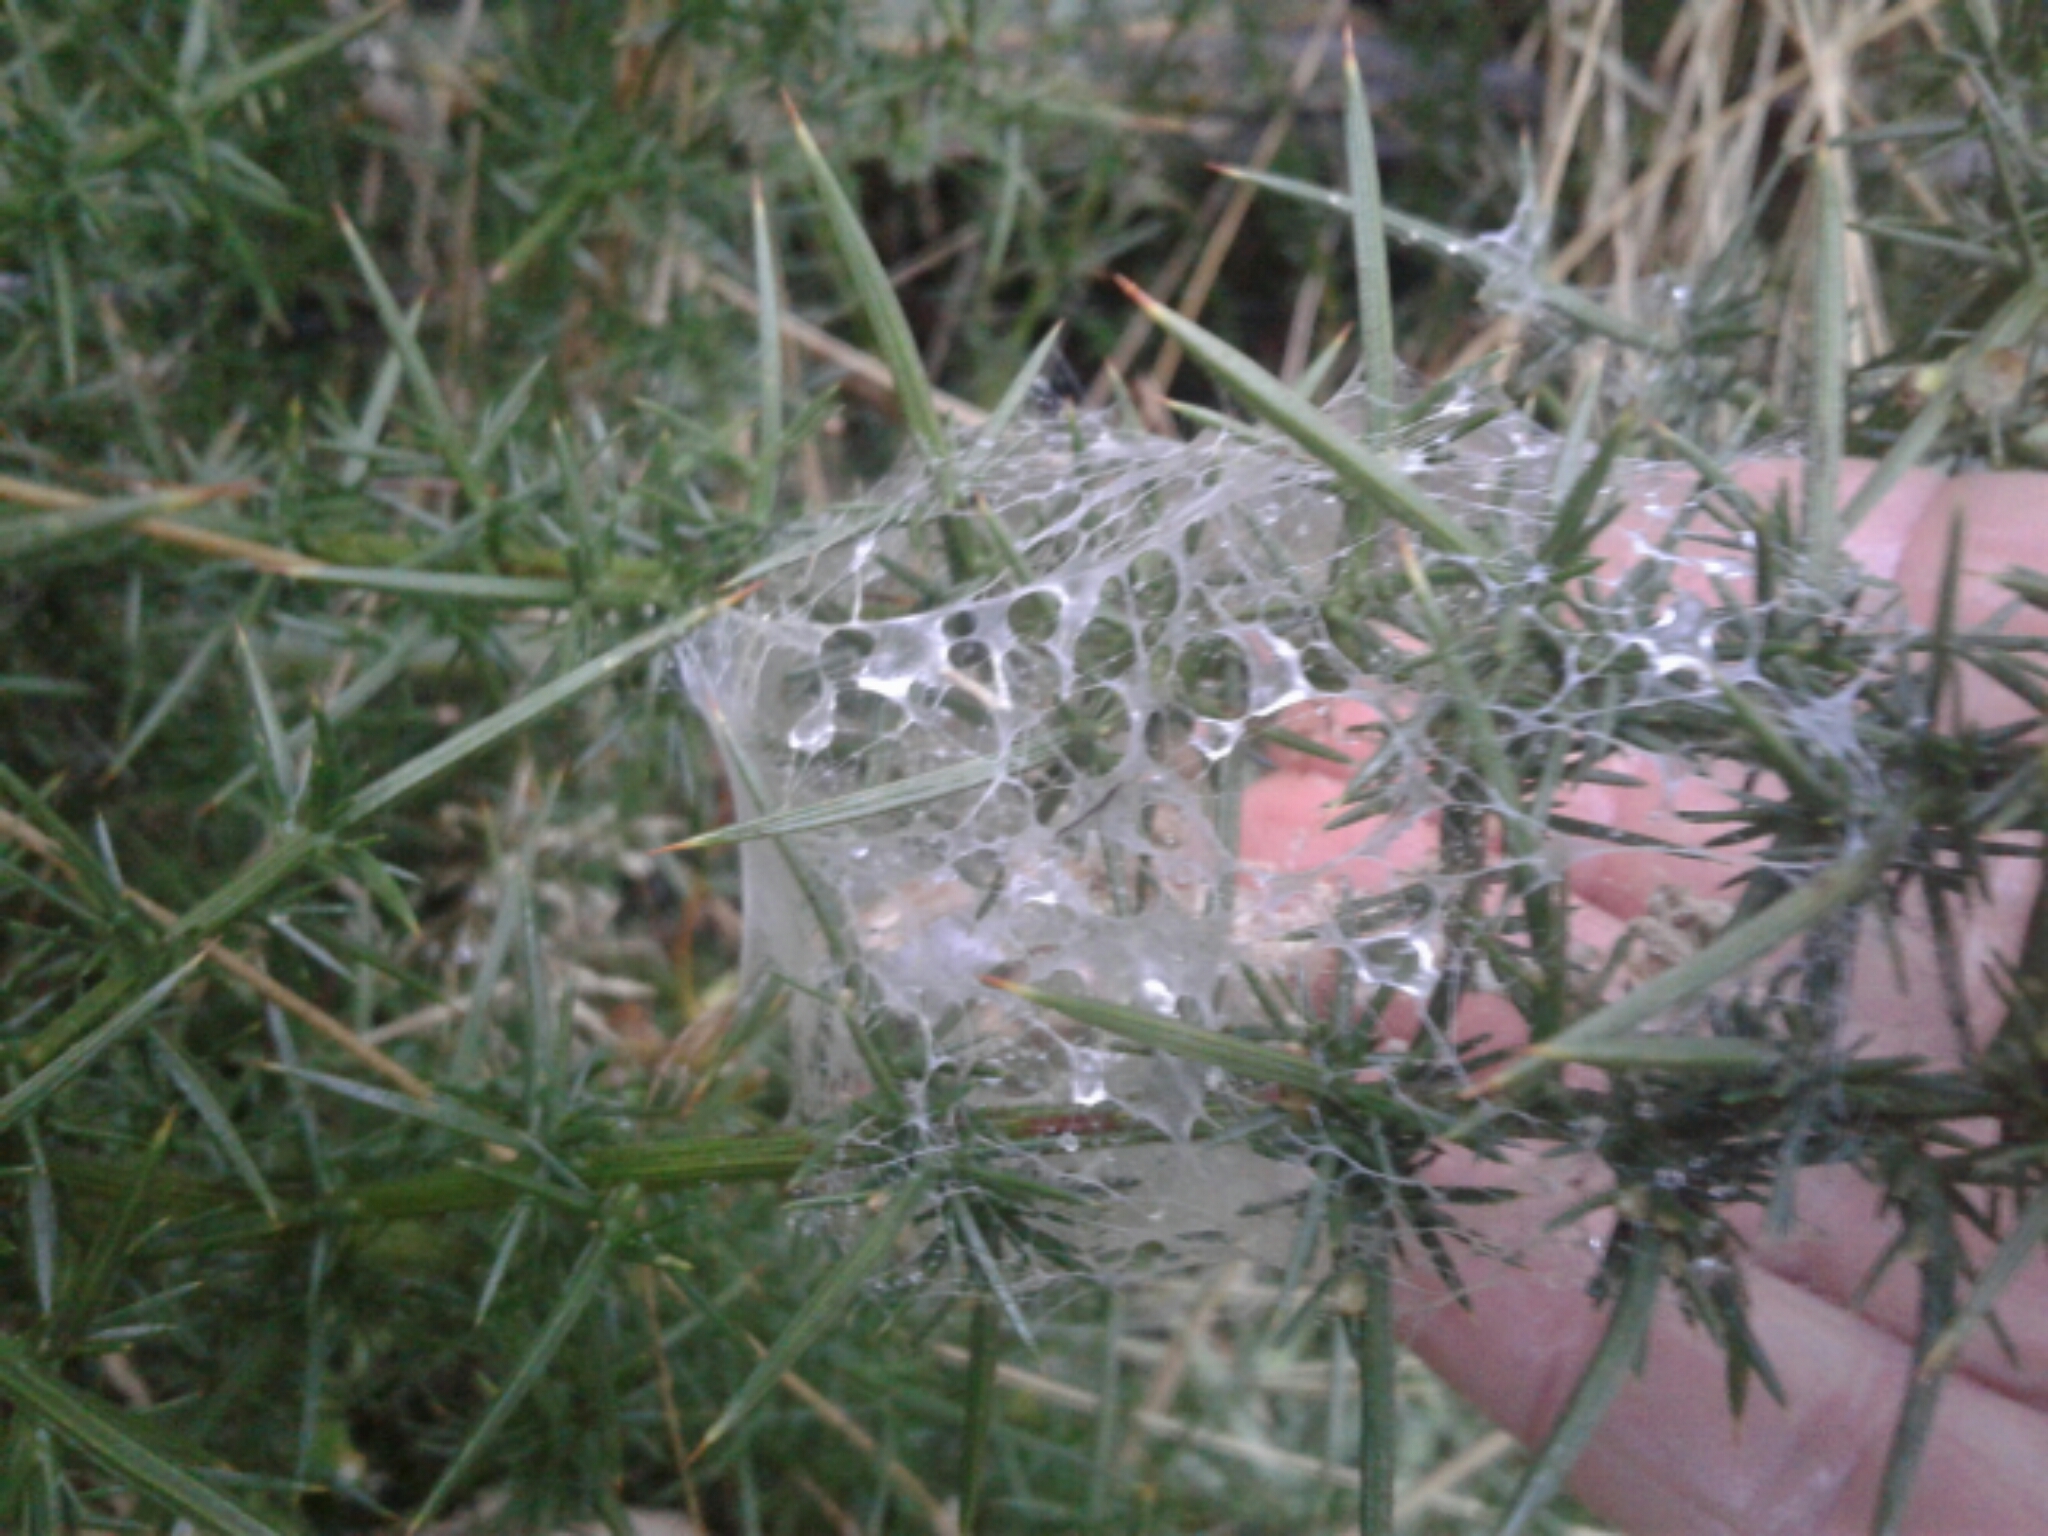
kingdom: Animalia
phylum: Arthropoda
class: Arachnida
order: Araneae
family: Pisauridae
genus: Dolomedes
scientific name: Dolomedes minor
